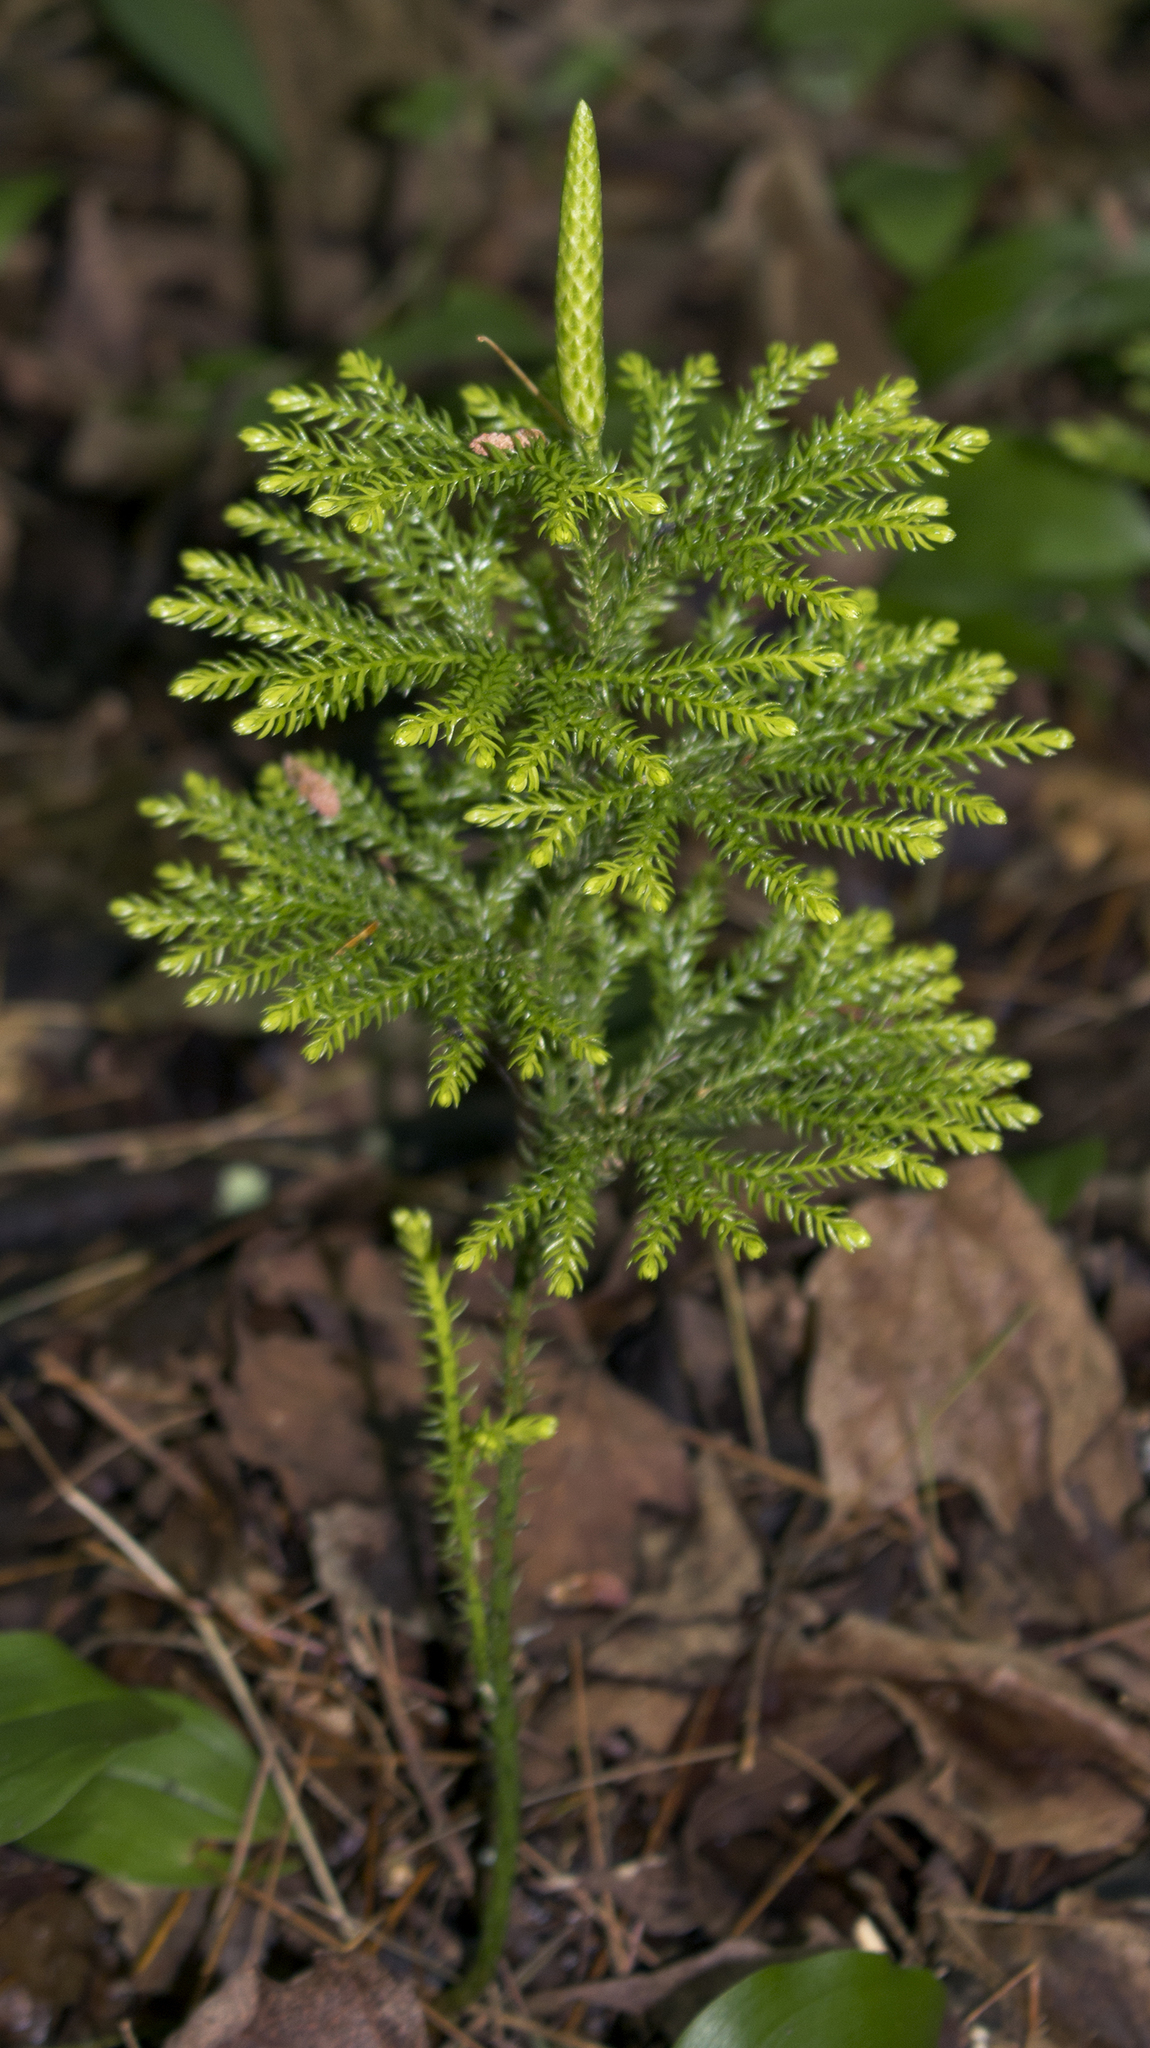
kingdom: Plantae
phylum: Tracheophyta
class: Lycopodiopsida
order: Lycopodiales
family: Lycopodiaceae
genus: Dendrolycopodium
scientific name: Dendrolycopodium dendroideum
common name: Northern tree-clubmoss
